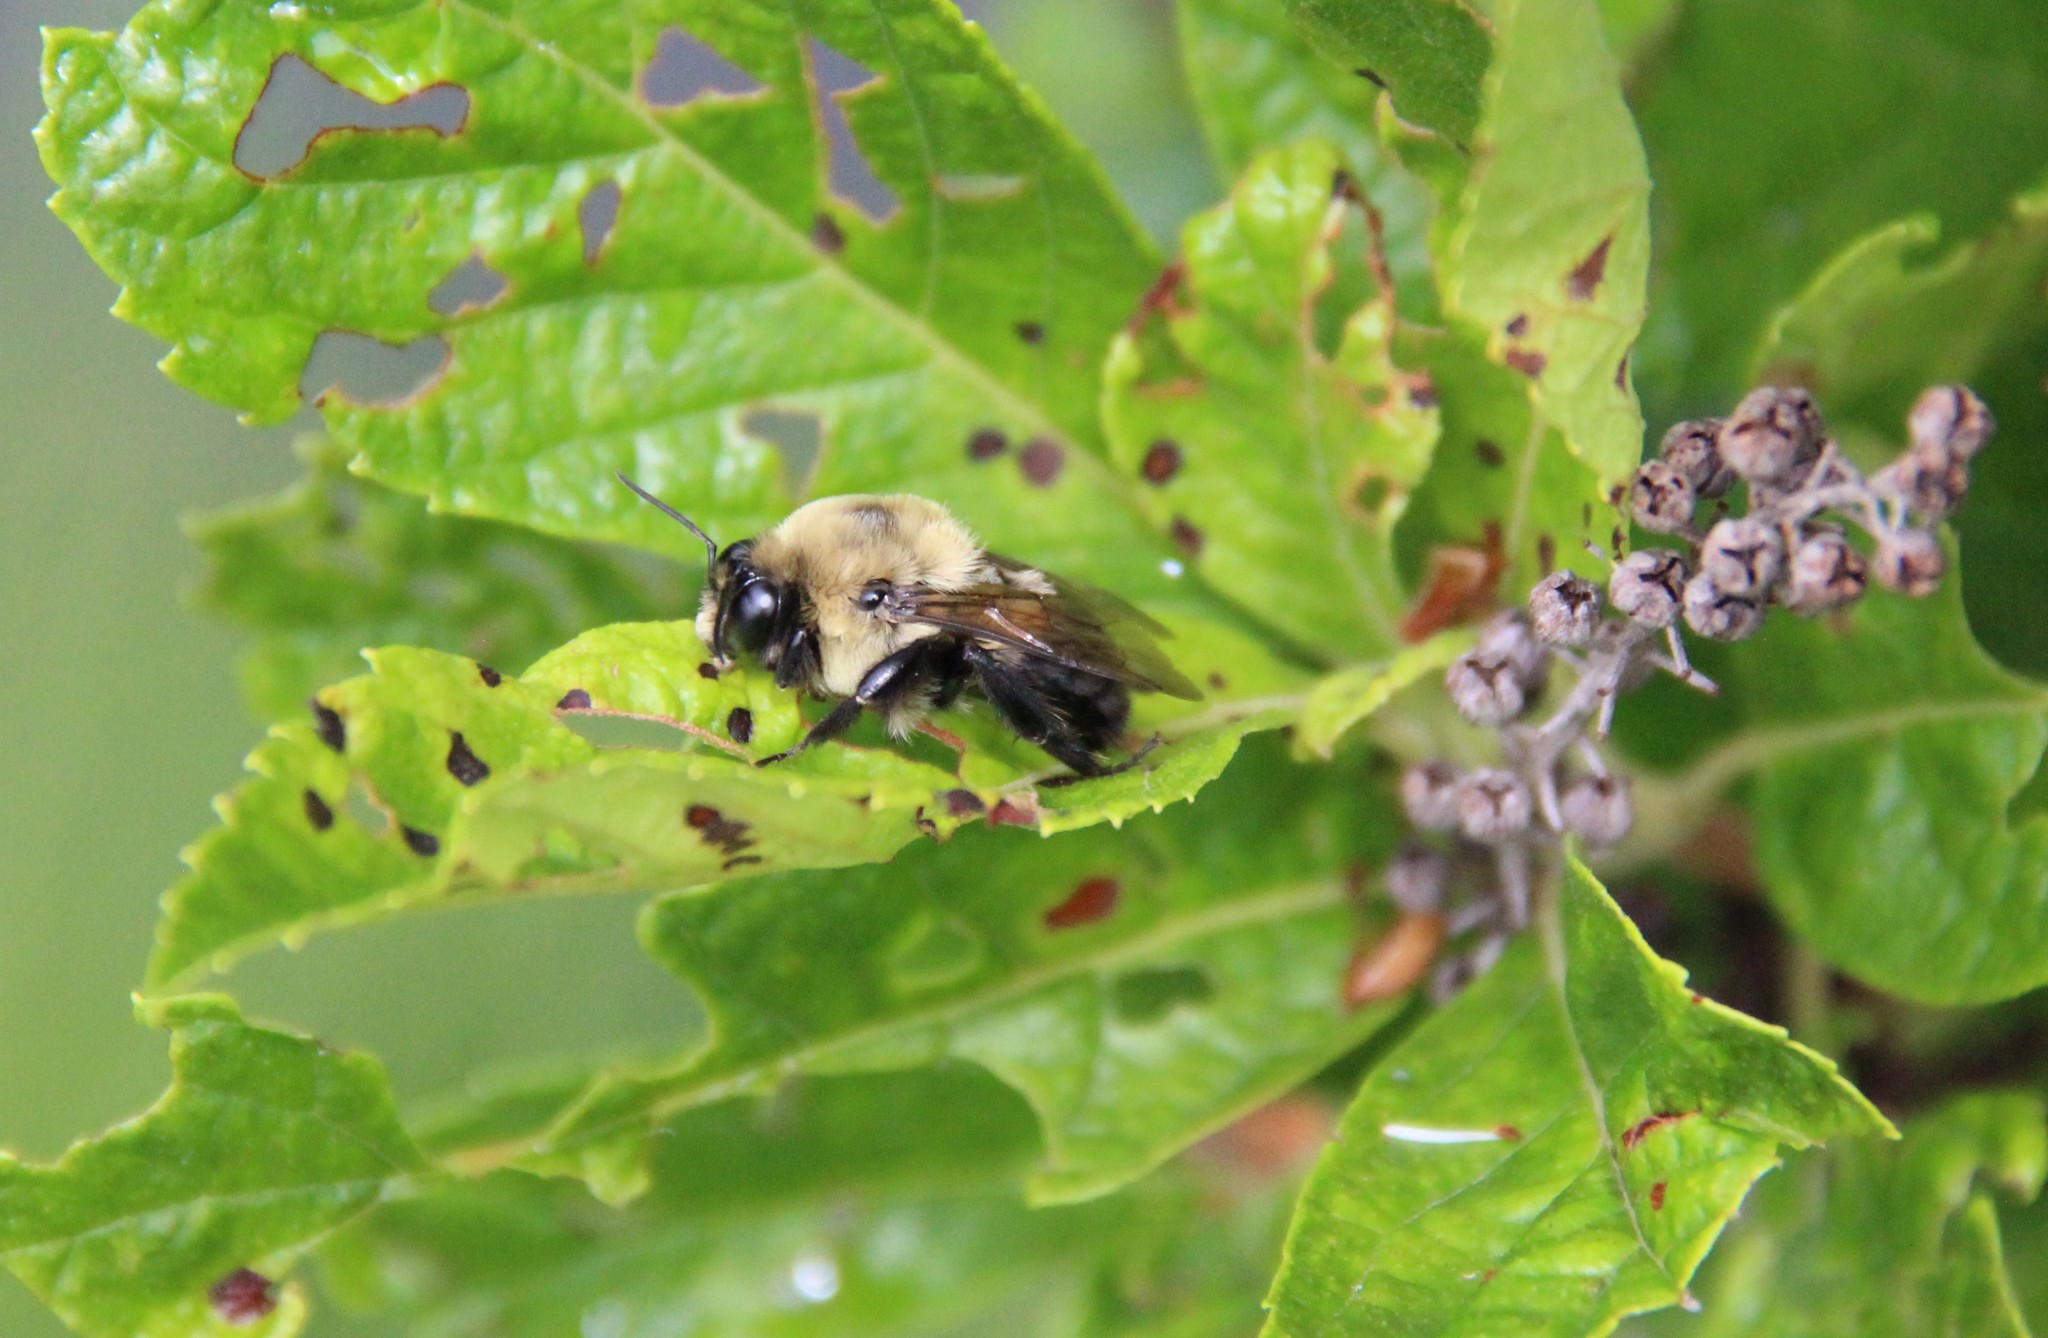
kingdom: Animalia
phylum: Arthropoda
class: Insecta
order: Hymenoptera
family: Apidae
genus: Bombus
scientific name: Bombus griseocollis
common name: Brown-belted bumble bee
